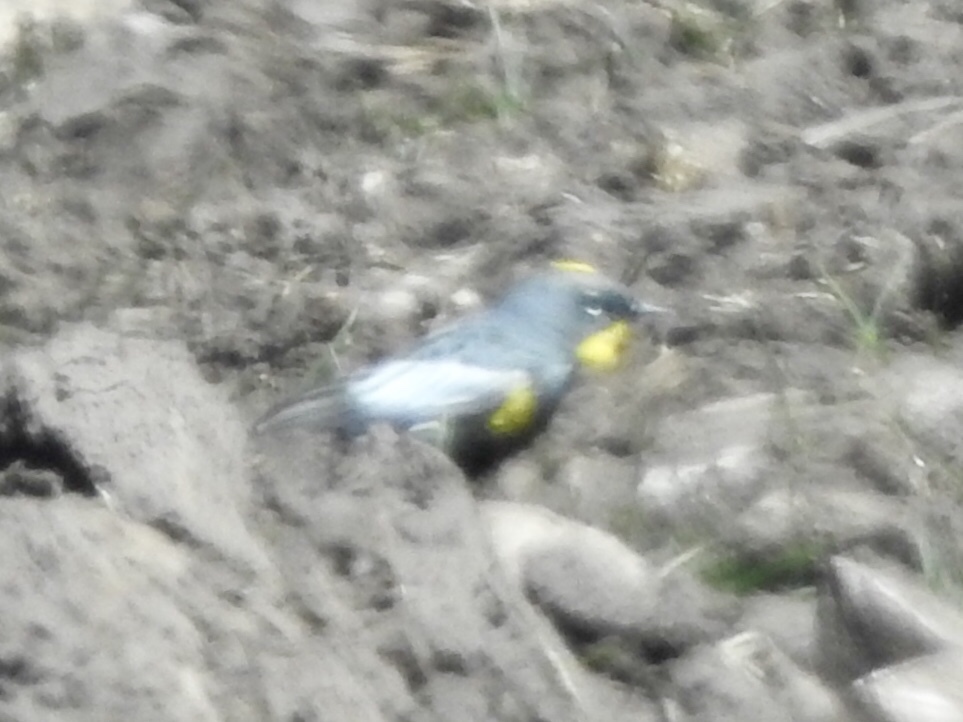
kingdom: Animalia
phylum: Chordata
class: Aves
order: Passeriformes
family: Parulidae
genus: Setophaga
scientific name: Setophaga auduboni
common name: Audubon's warbler
